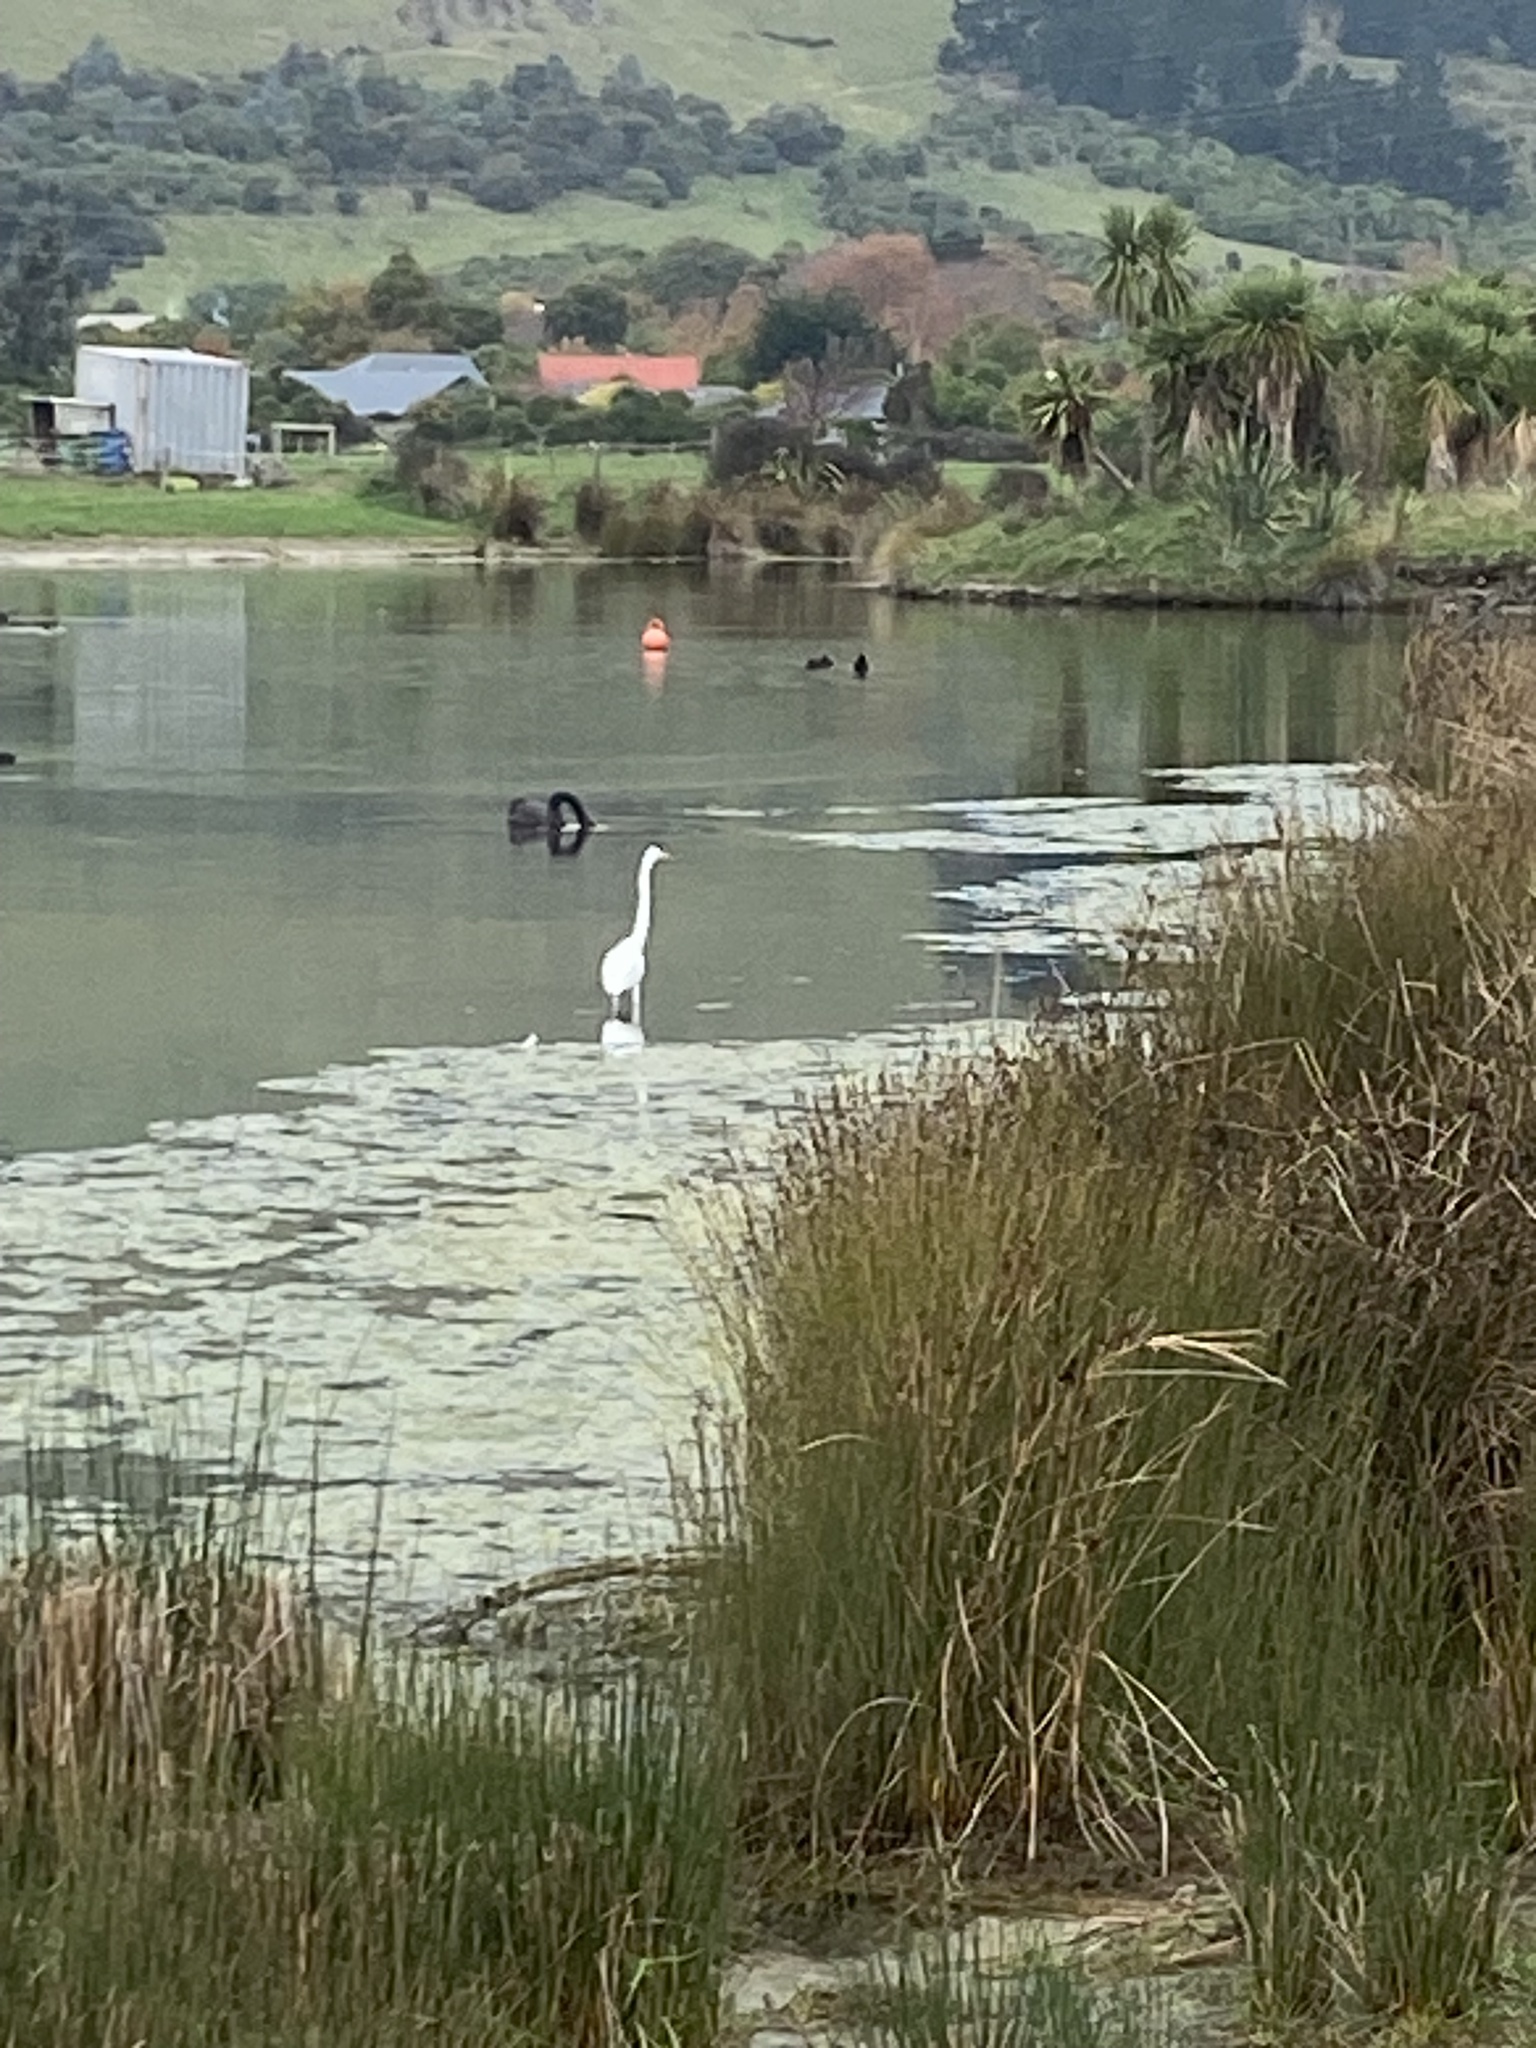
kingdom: Animalia
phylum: Chordata
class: Aves
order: Pelecaniformes
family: Ardeidae
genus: Ardea
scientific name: Ardea modesta
